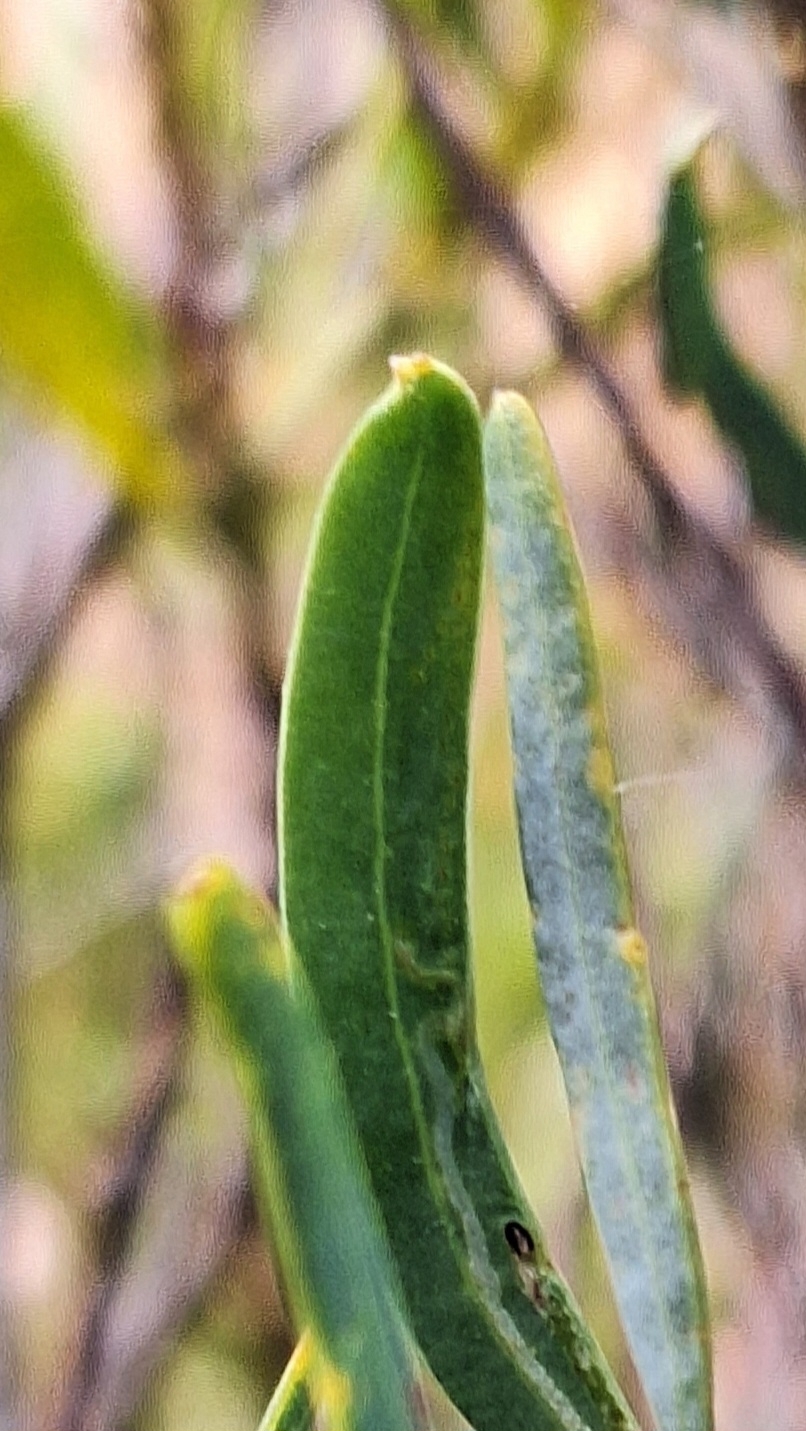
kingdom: Plantae
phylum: Tracheophyta
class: Magnoliopsida
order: Fabales
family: Fabaceae
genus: Acacia
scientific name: Acacia ligulata
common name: Dune wattle
